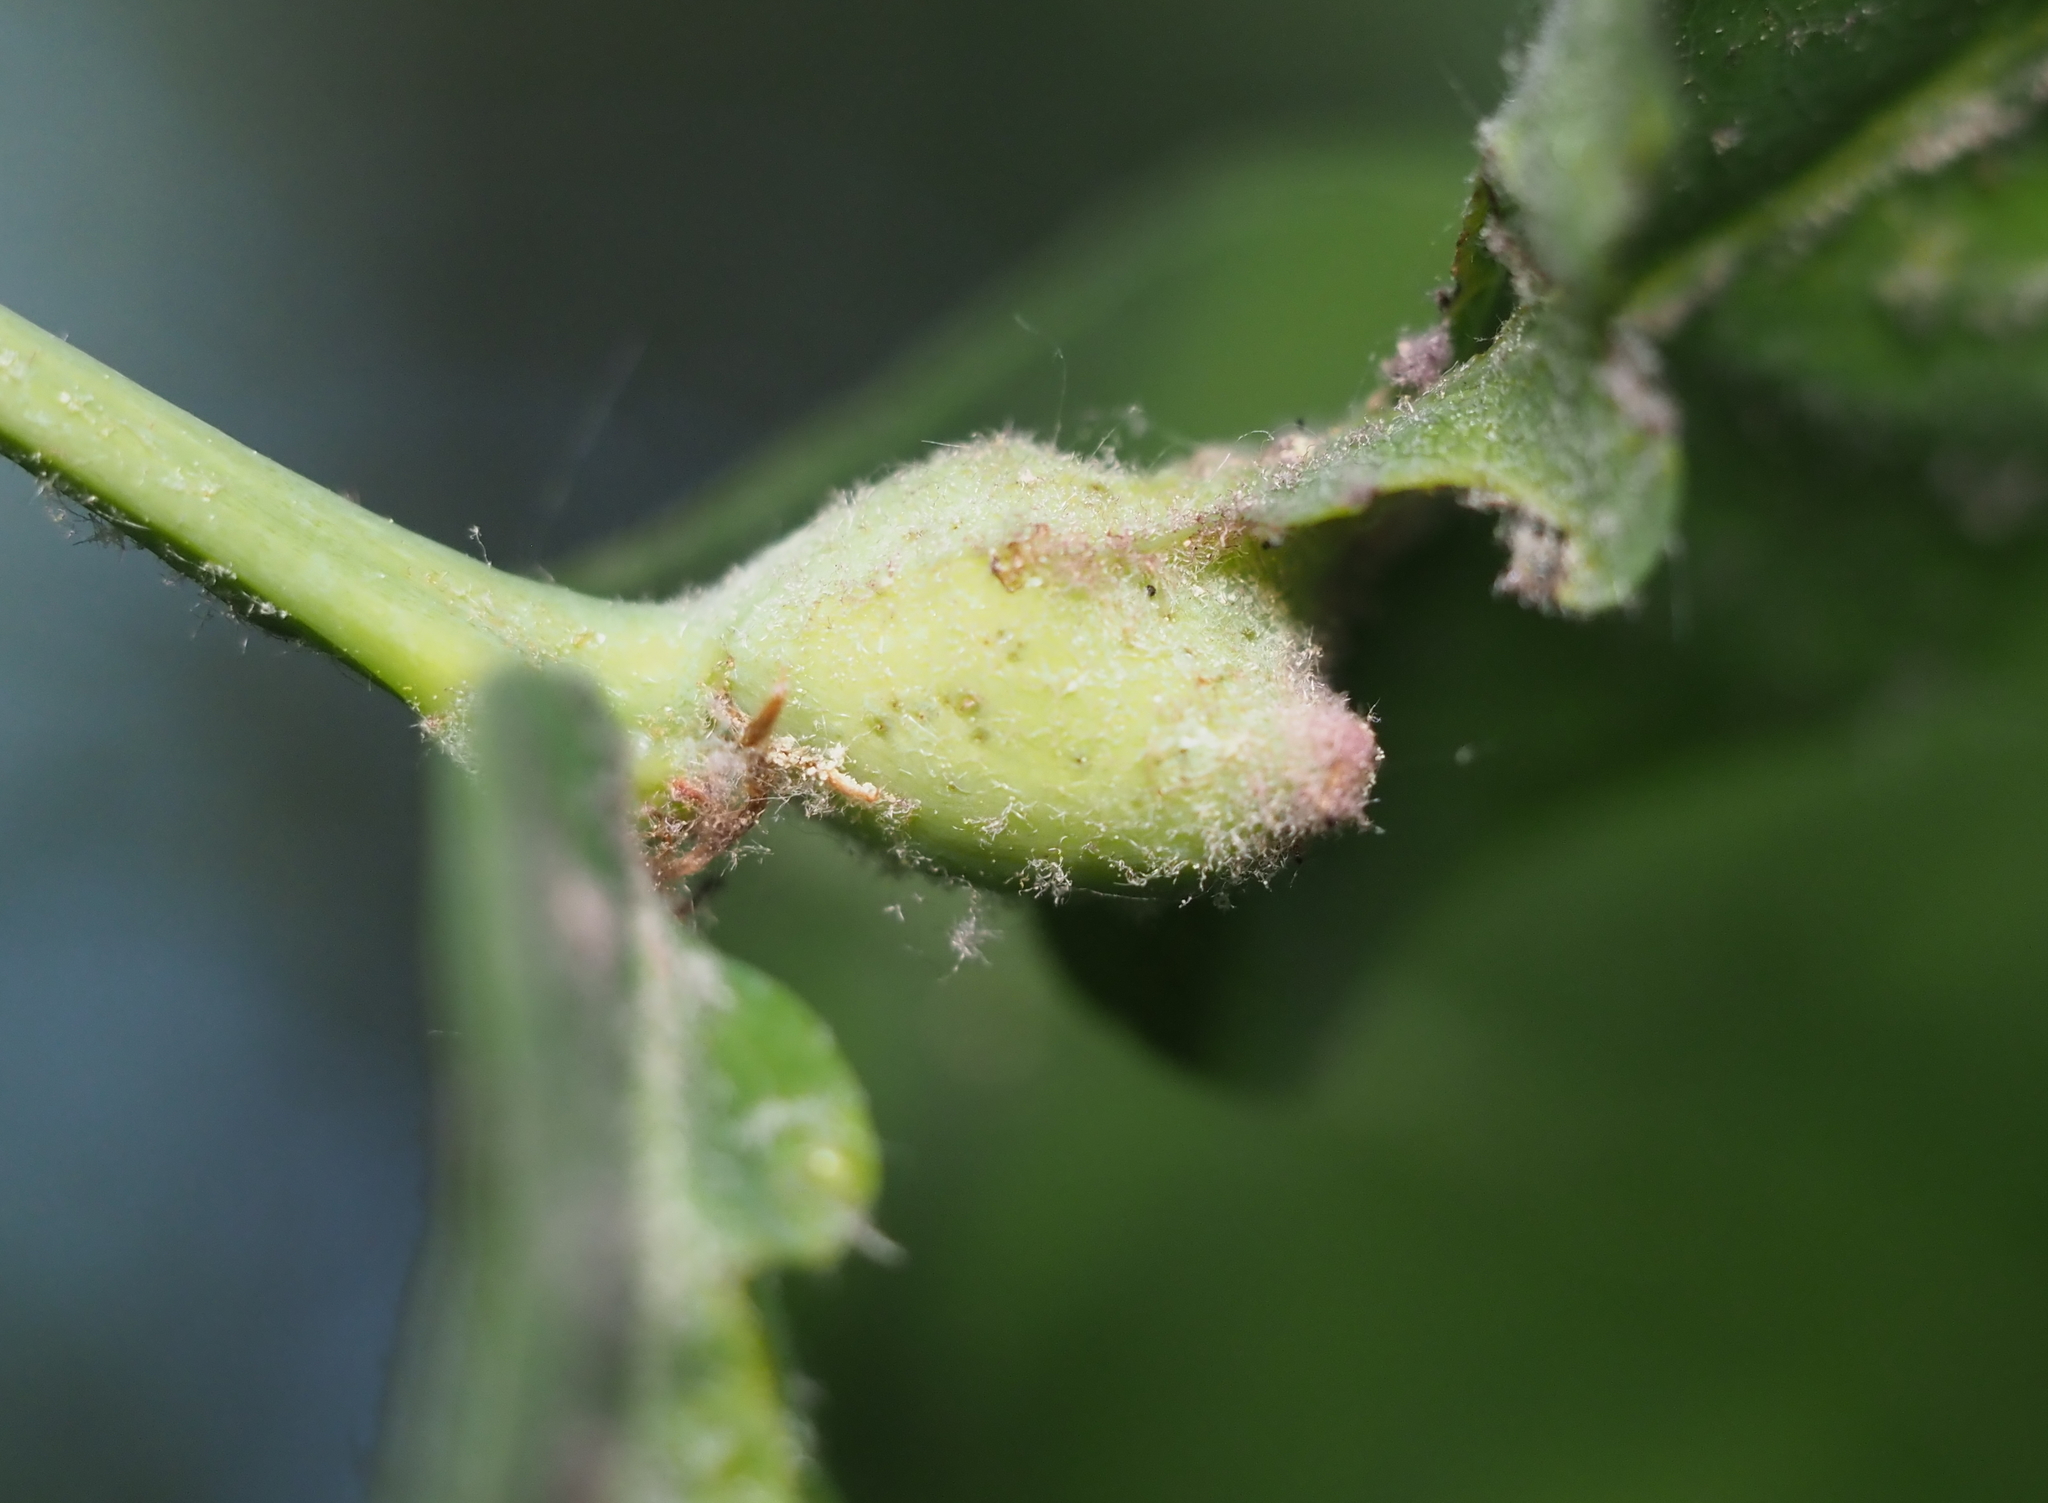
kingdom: Animalia
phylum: Arthropoda
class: Insecta
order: Hymenoptera
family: Cynipidae
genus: Andricus
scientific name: Andricus
